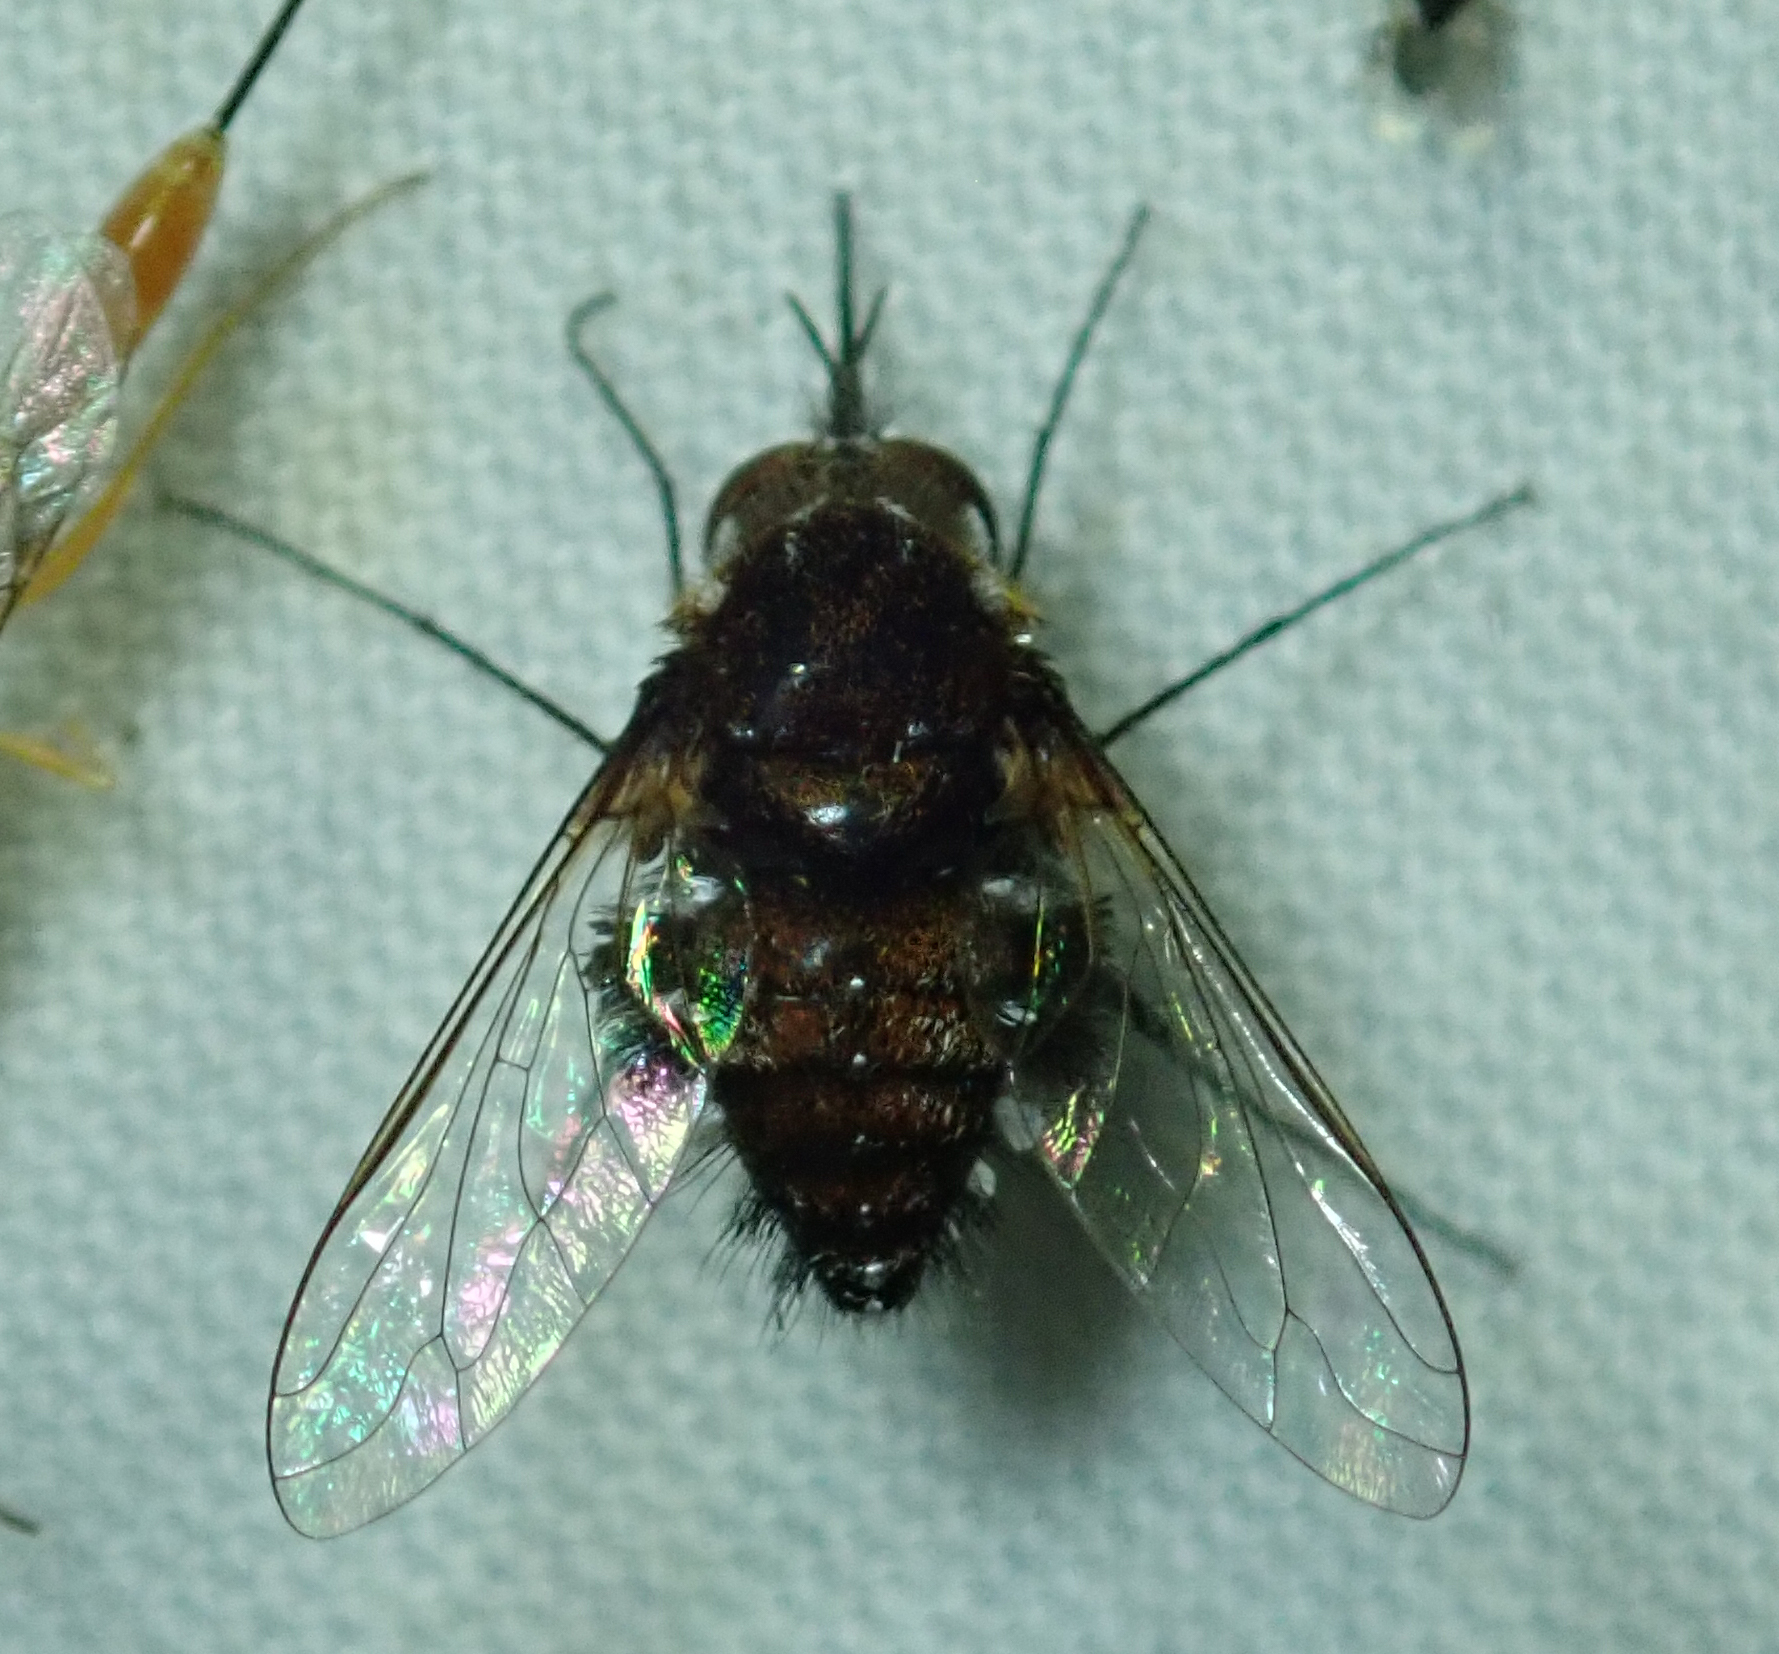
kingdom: Animalia
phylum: Arthropoda
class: Insecta
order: Diptera
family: Bombyliidae
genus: Bombylella
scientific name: Bombylella
